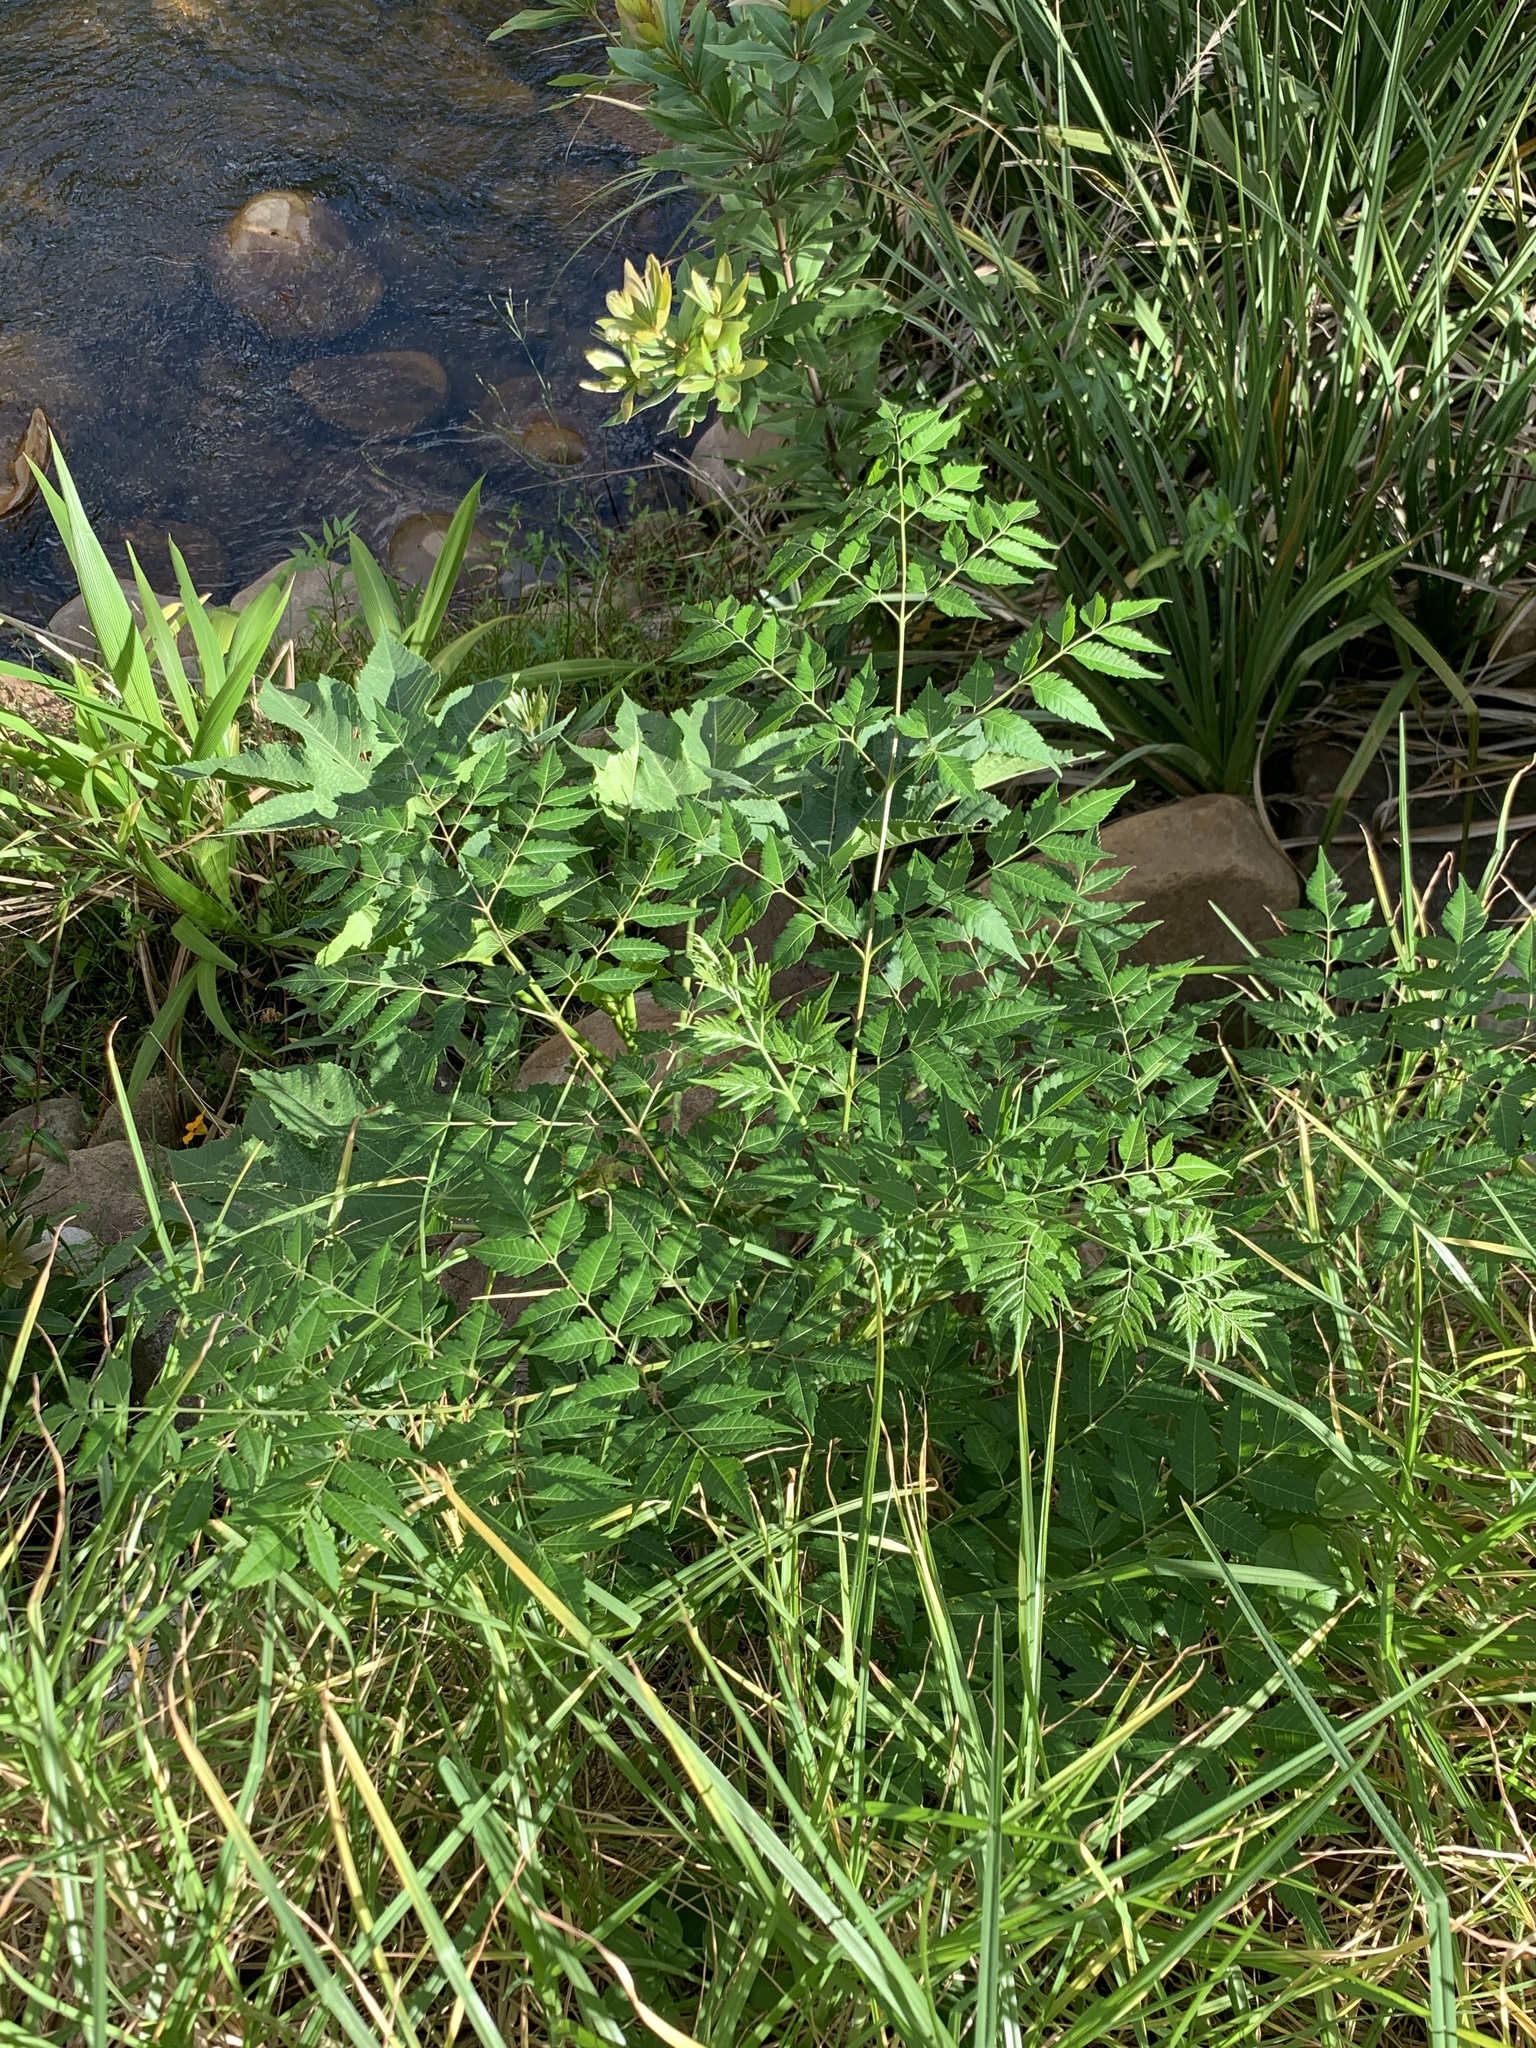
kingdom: Plantae
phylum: Tracheophyta
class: Magnoliopsida
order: Sapindales
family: Meliaceae
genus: Melia
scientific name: Melia azedarach
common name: Chinaberrytree
